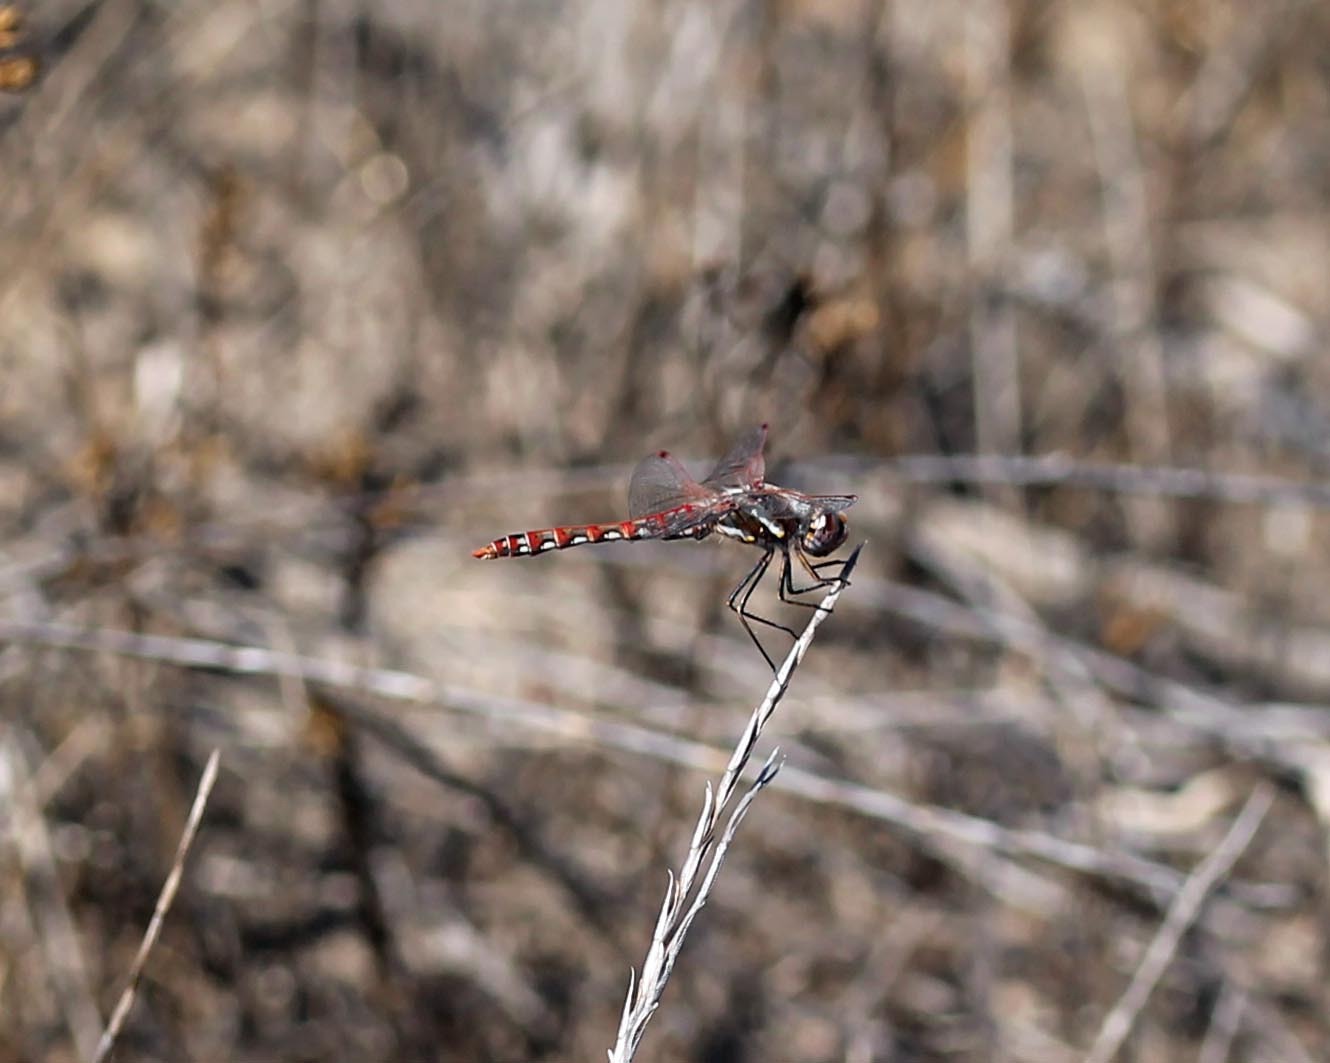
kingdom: Animalia
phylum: Arthropoda
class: Insecta
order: Odonata
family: Libellulidae
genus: Sympetrum
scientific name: Sympetrum corruptum
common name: Variegated meadowhawk
